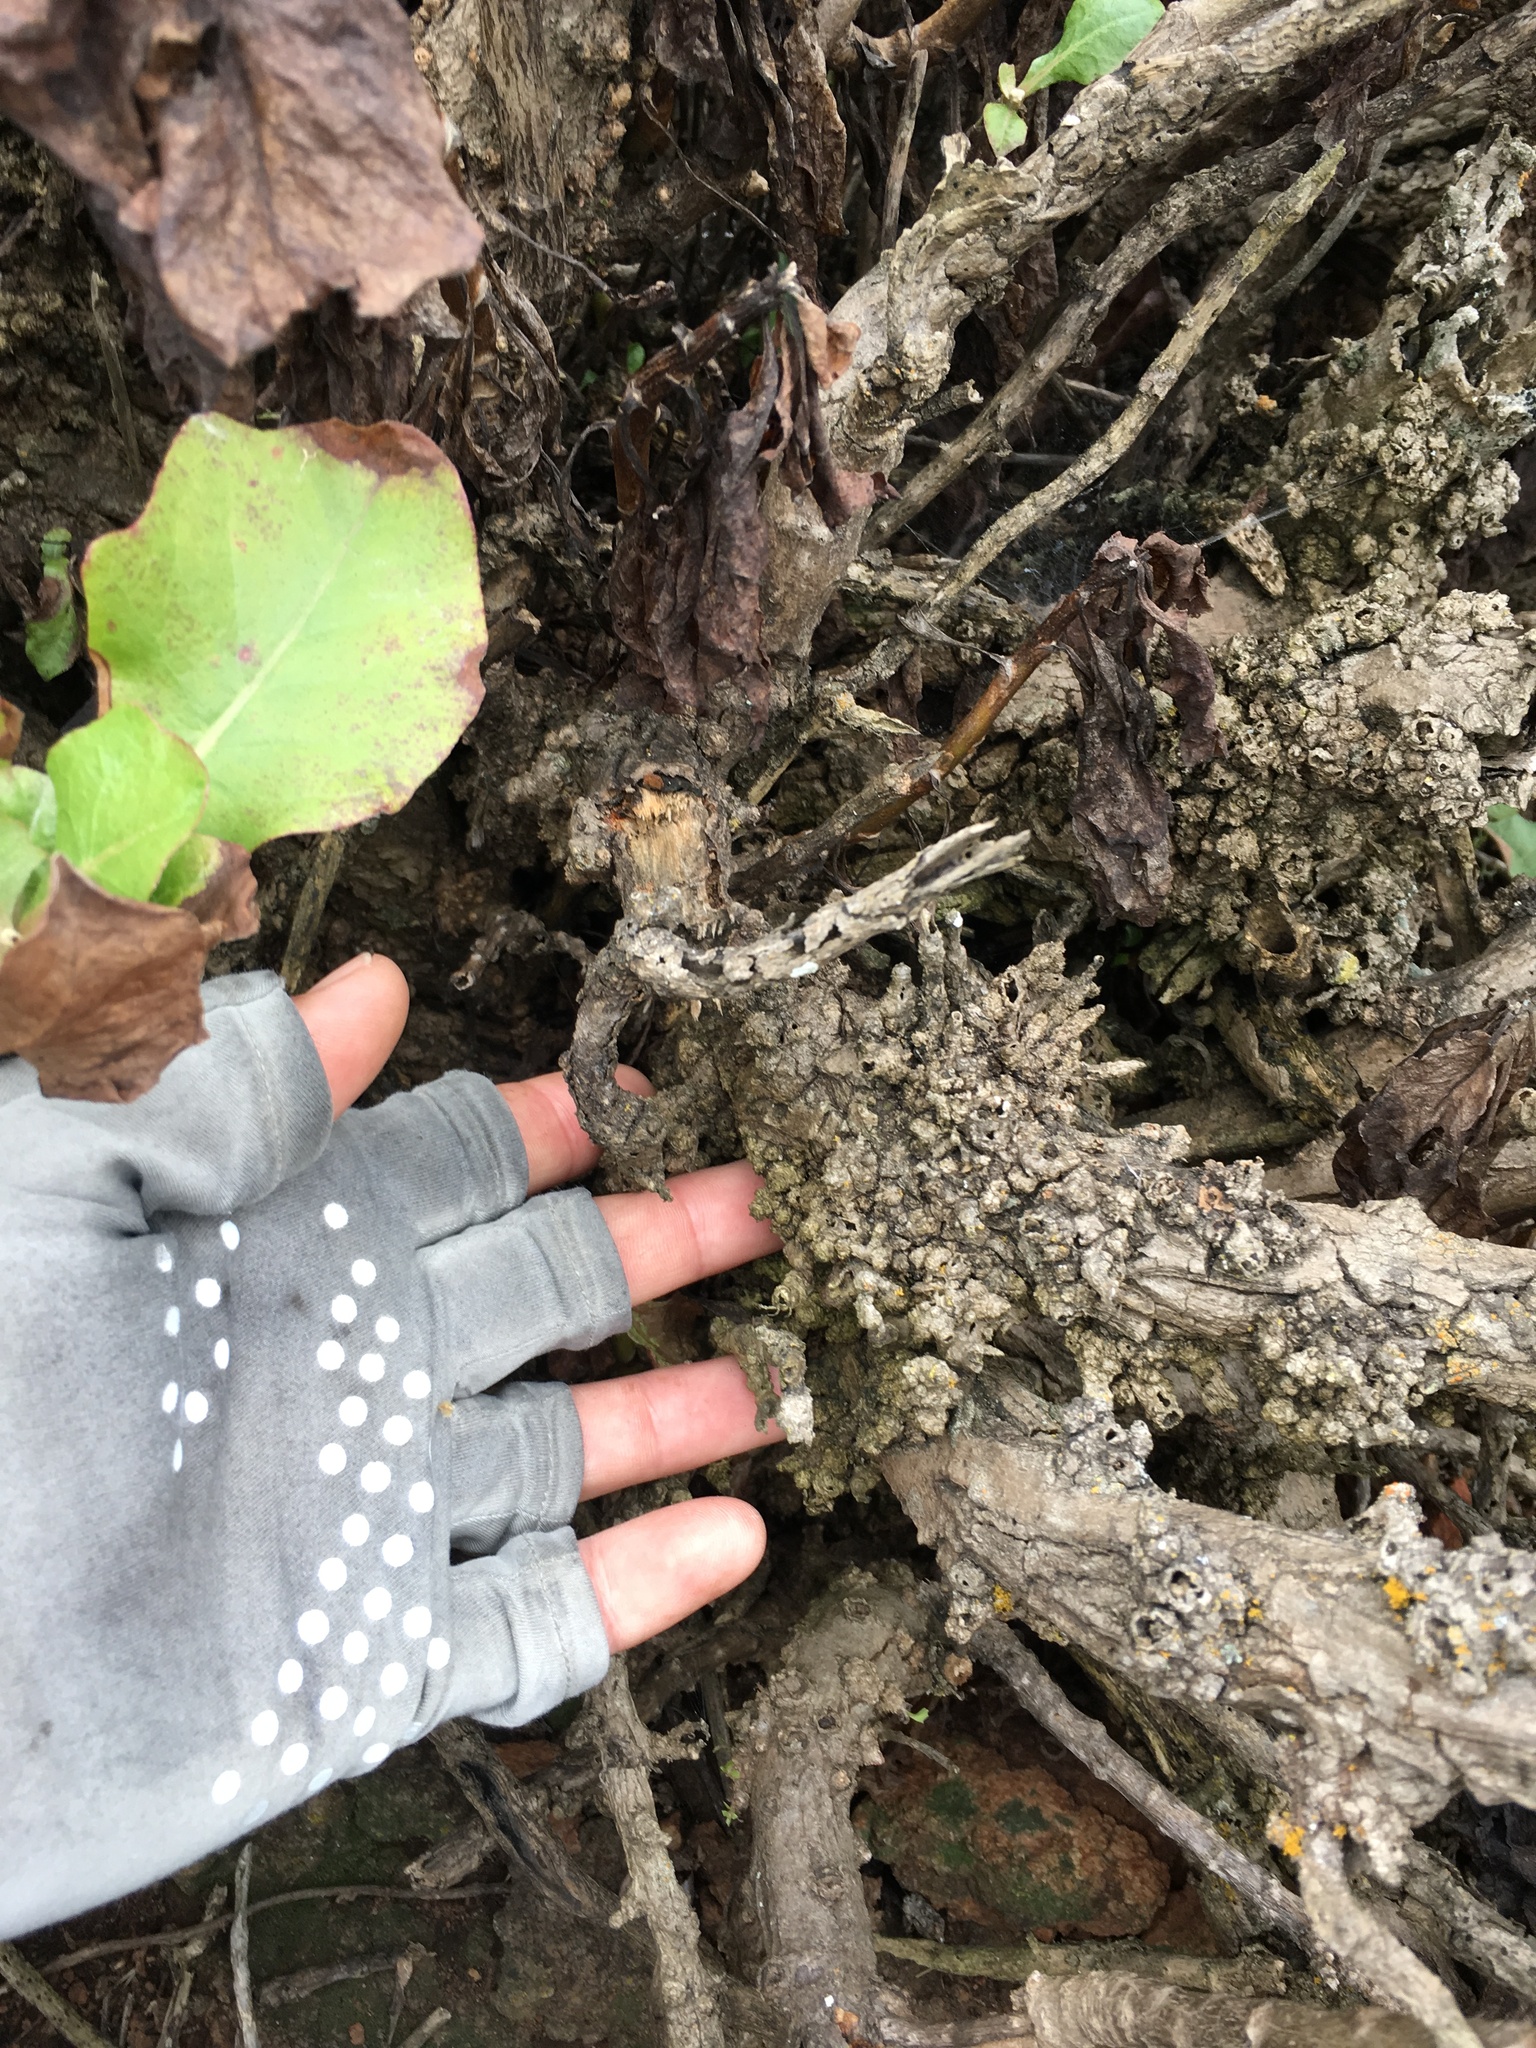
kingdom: Plantae
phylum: Tracheophyta
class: Magnoliopsida
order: Asterales
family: Asteraceae
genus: Munzothamnus
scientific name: Munzothamnus blairii
